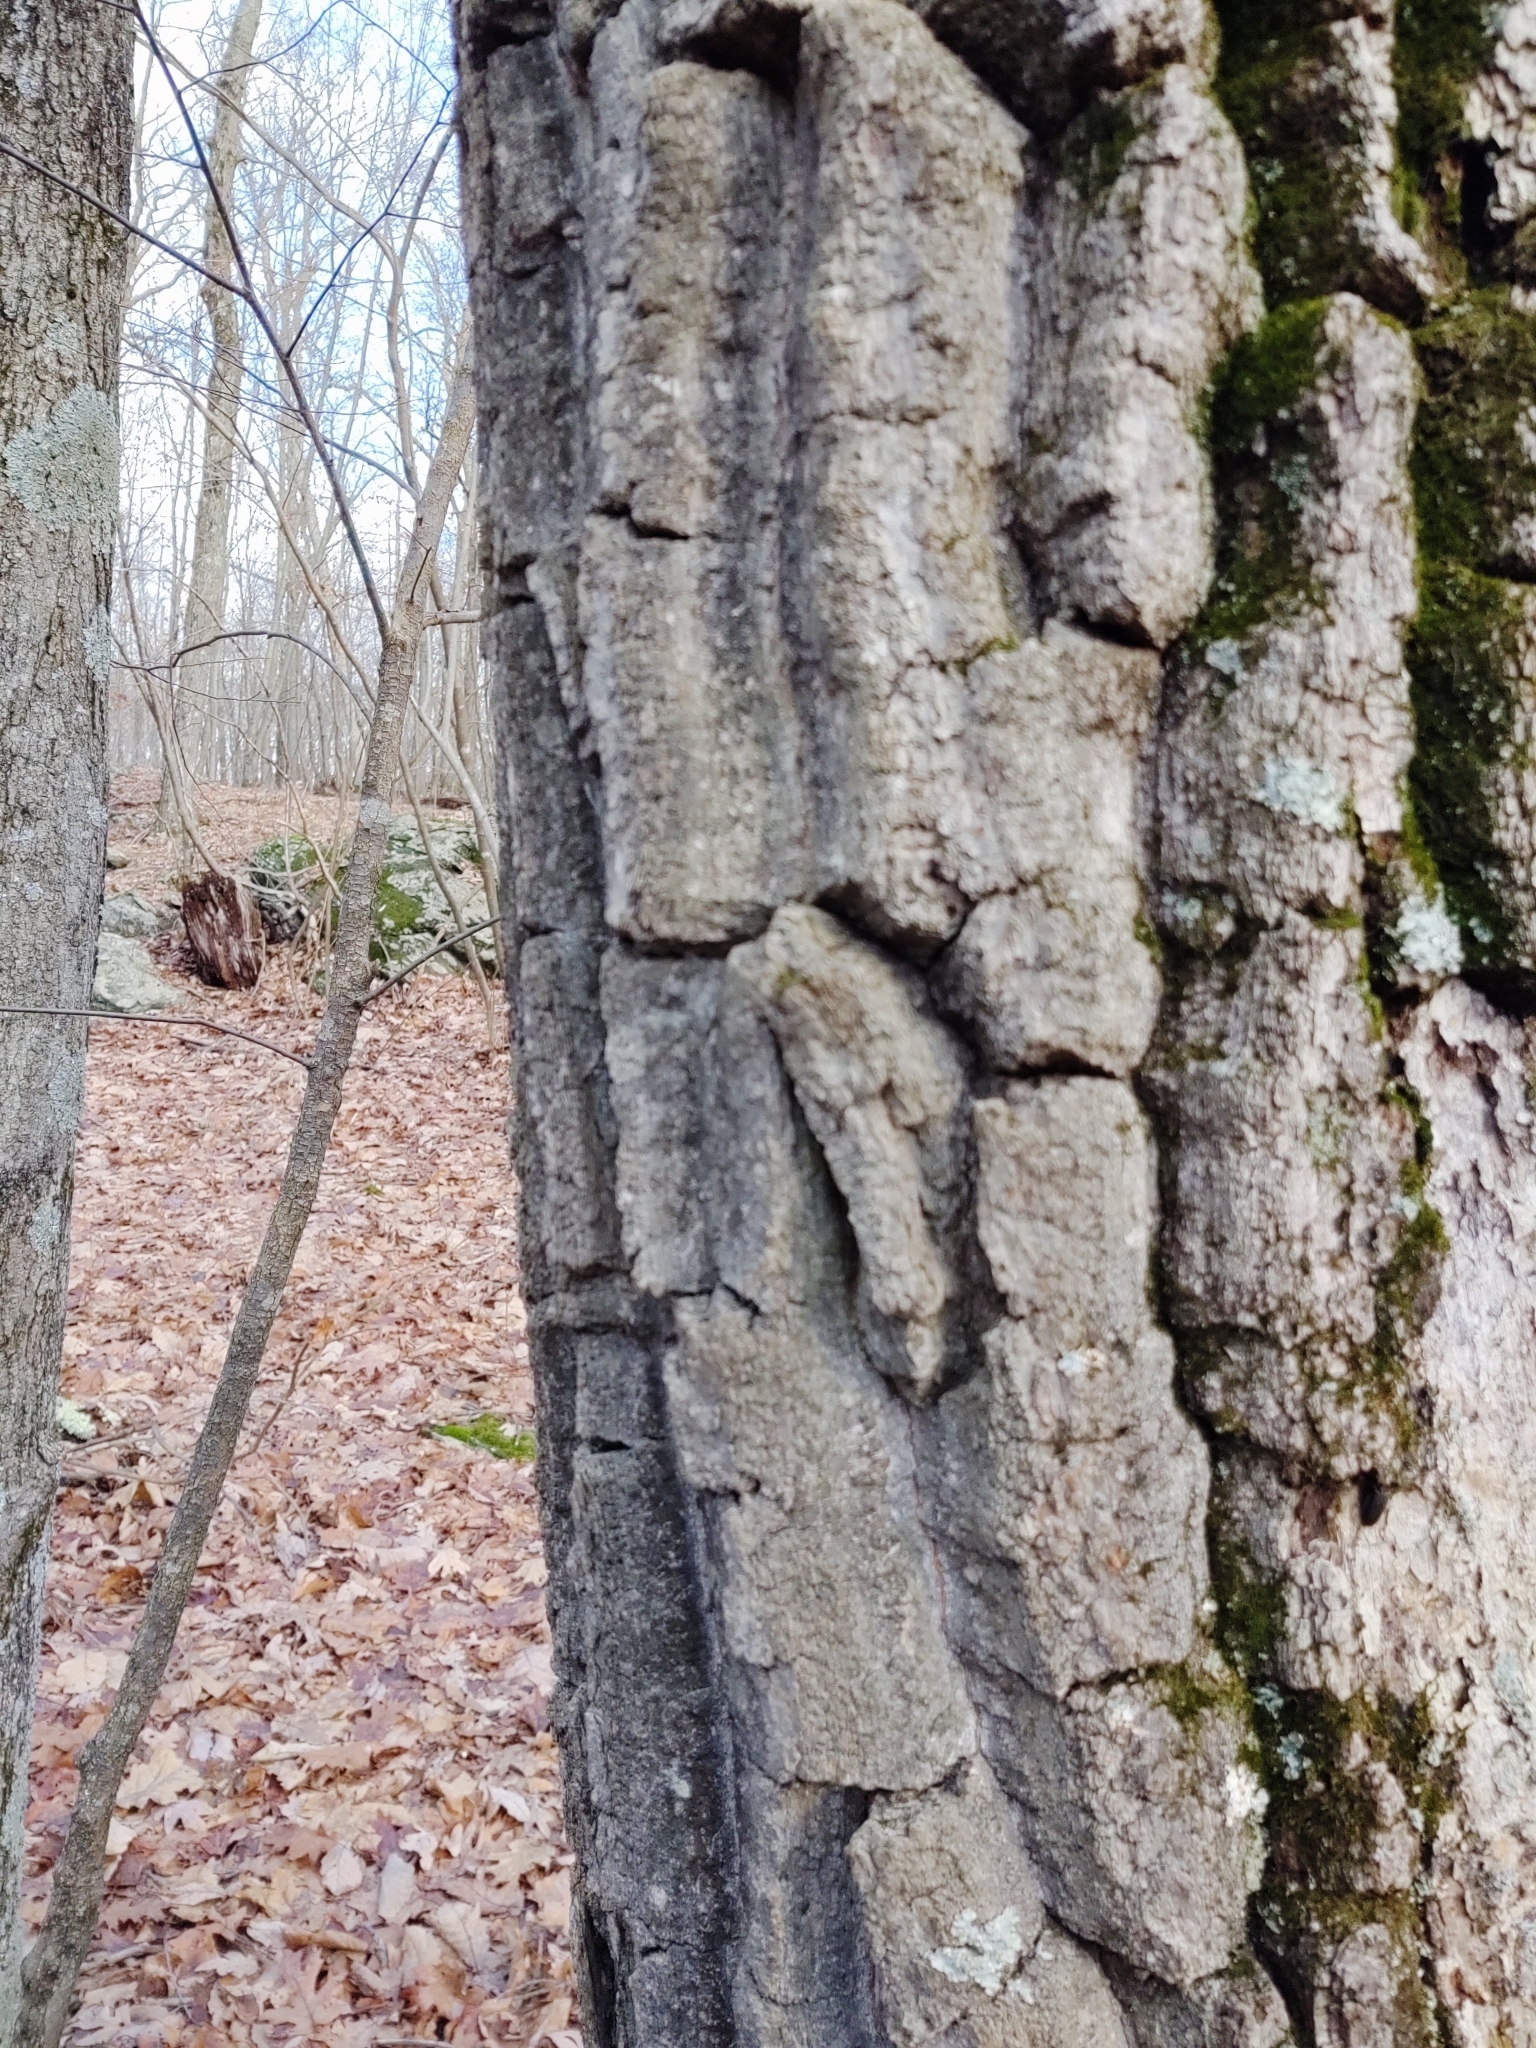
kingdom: Plantae
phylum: Tracheophyta
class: Magnoliopsida
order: Fagales
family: Fagaceae
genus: Quercus
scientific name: Quercus montana
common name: Chestnut oak
